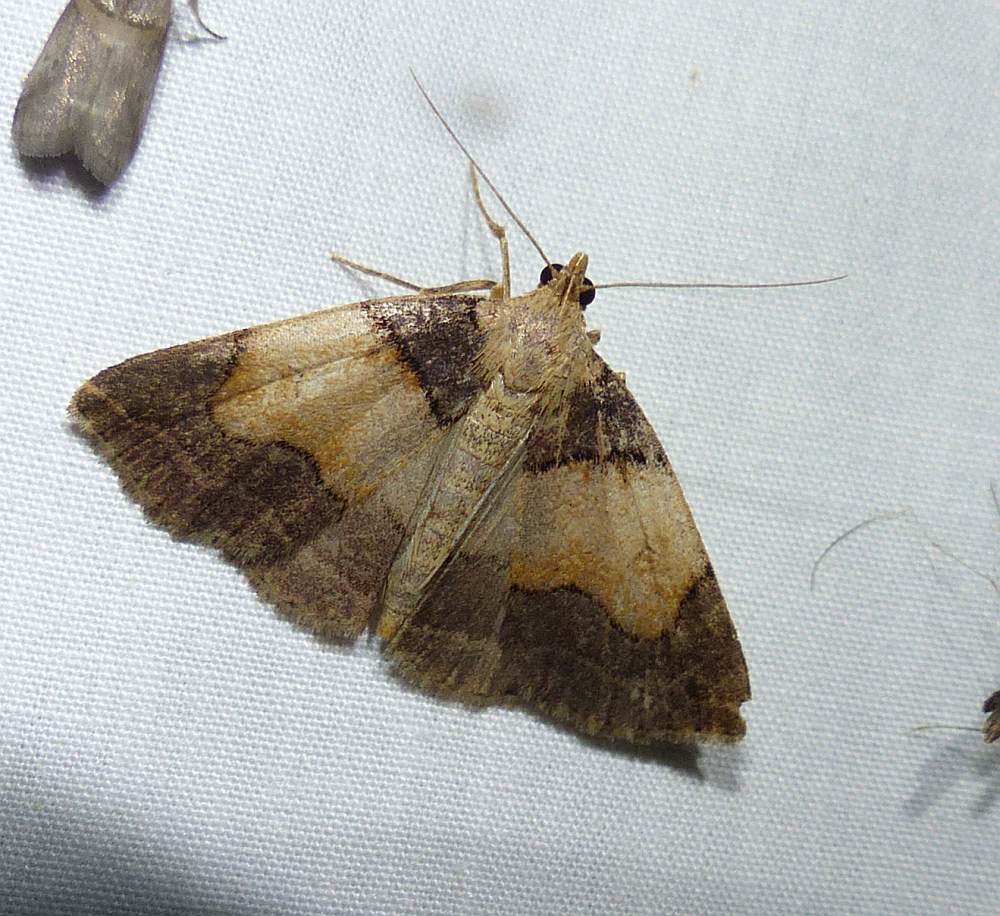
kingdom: Animalia
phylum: Arthropoda
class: Insecta
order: Lepidoptera
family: Erebidae
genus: Zanclognatha
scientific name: Zanclognatha laevigata
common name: Variable fan-foot
